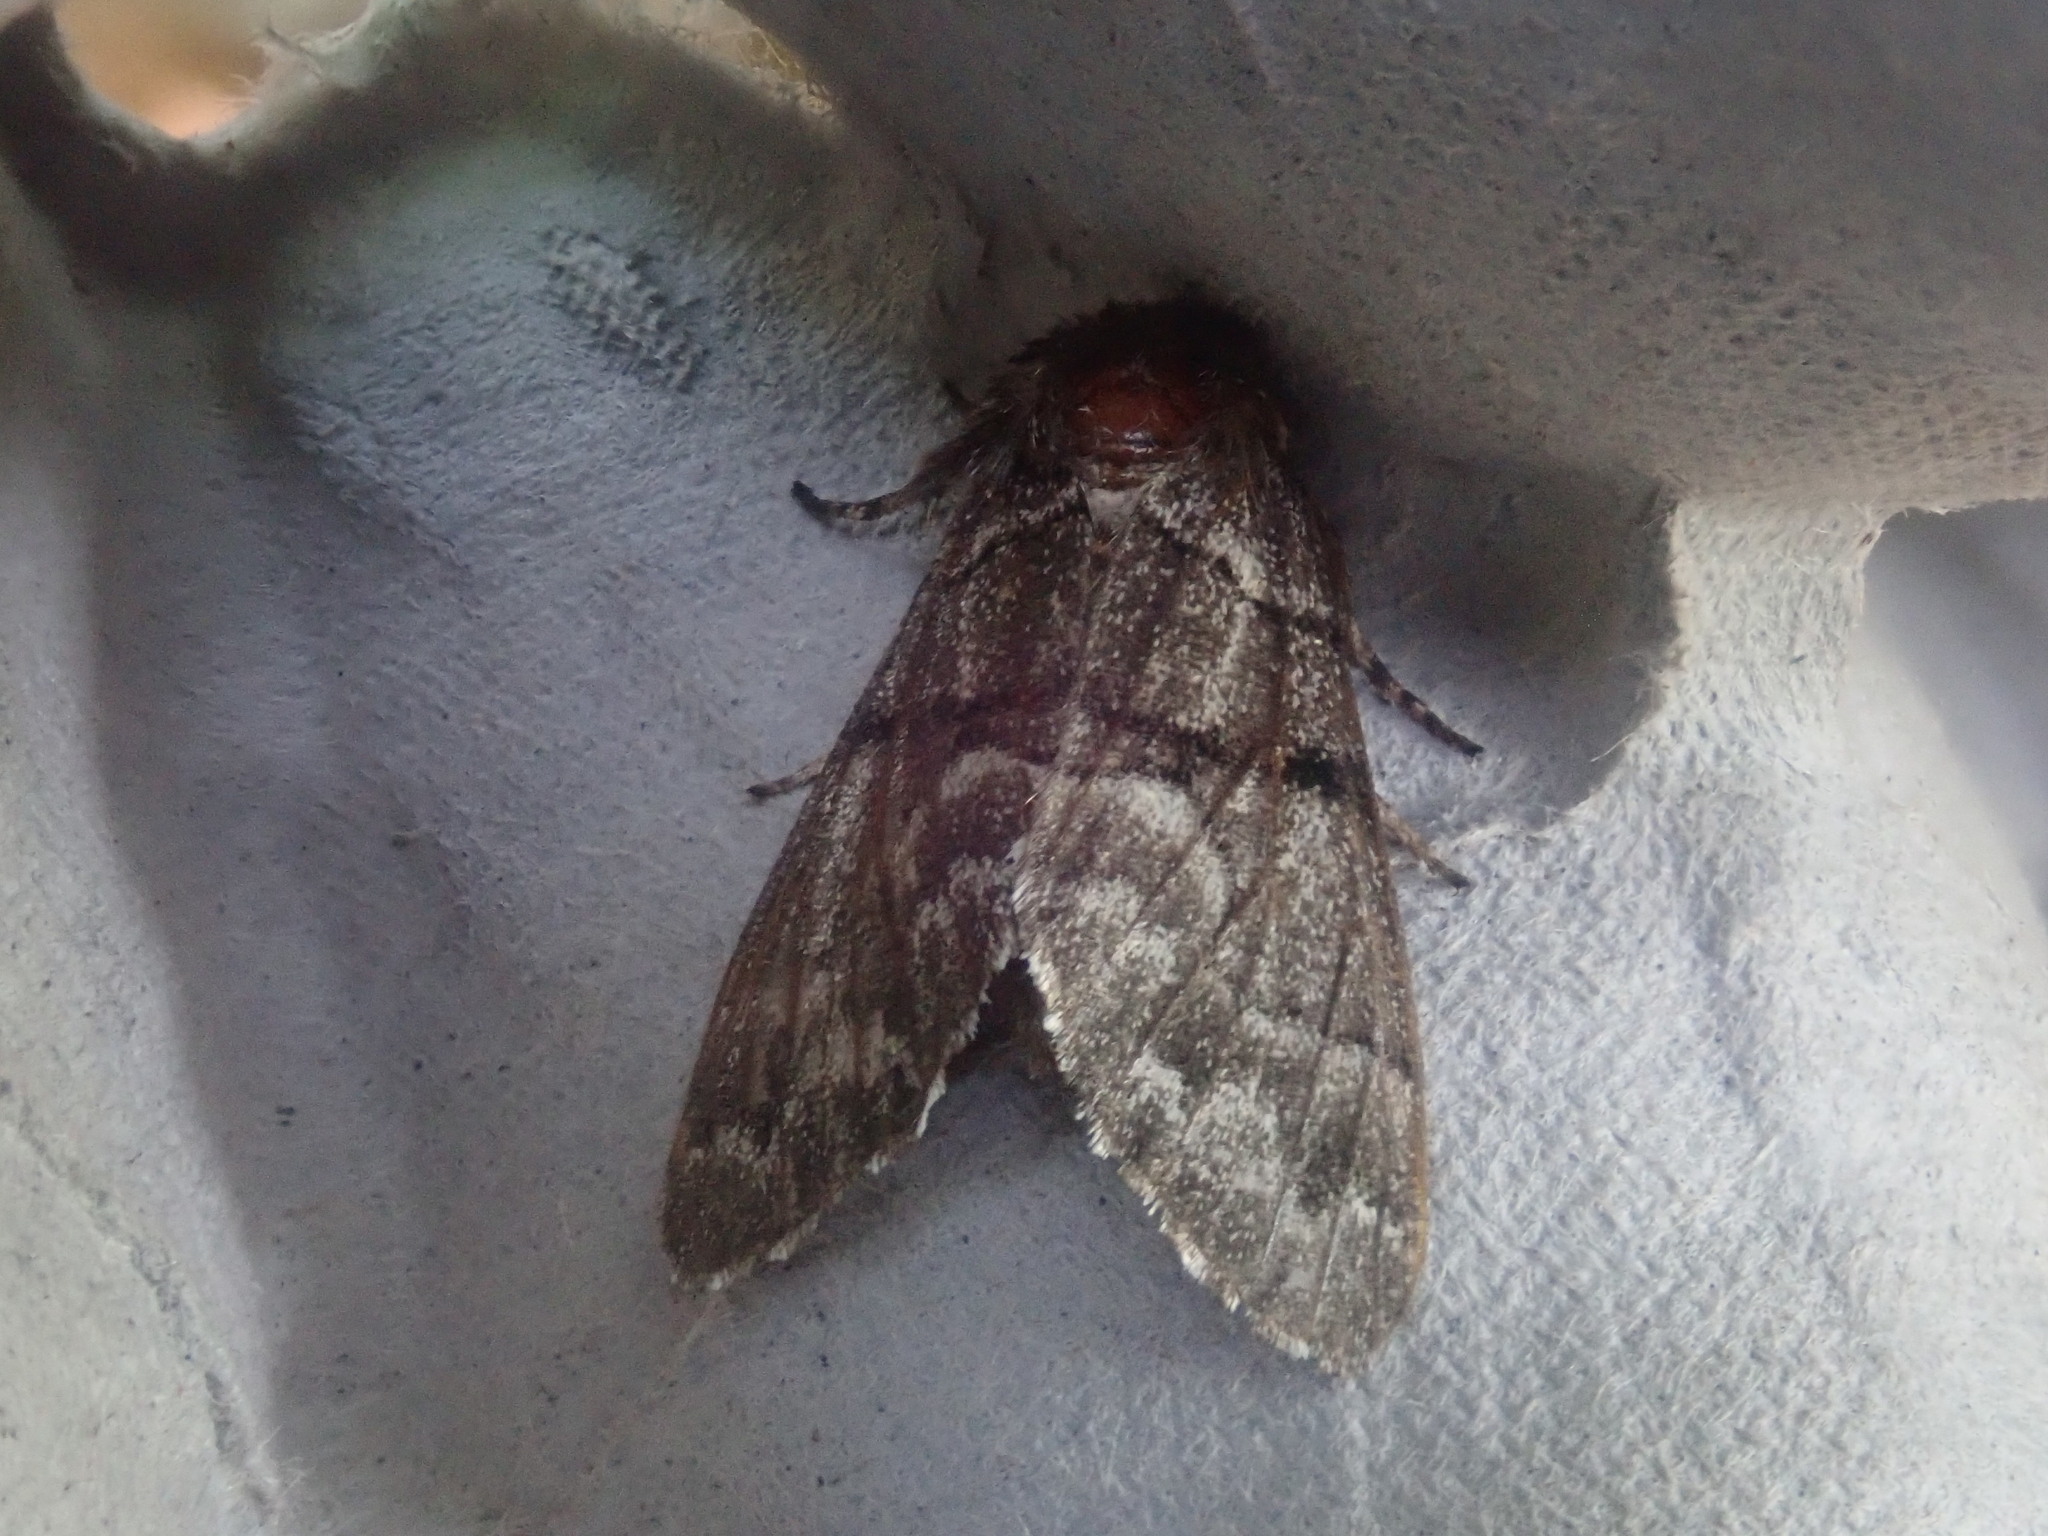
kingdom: Animalia
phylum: Arthropoda
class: Insecta
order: Lepidoptera
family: Noctuidae
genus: Panthea
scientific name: Panthea furcilla
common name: Eastern panthea moth
